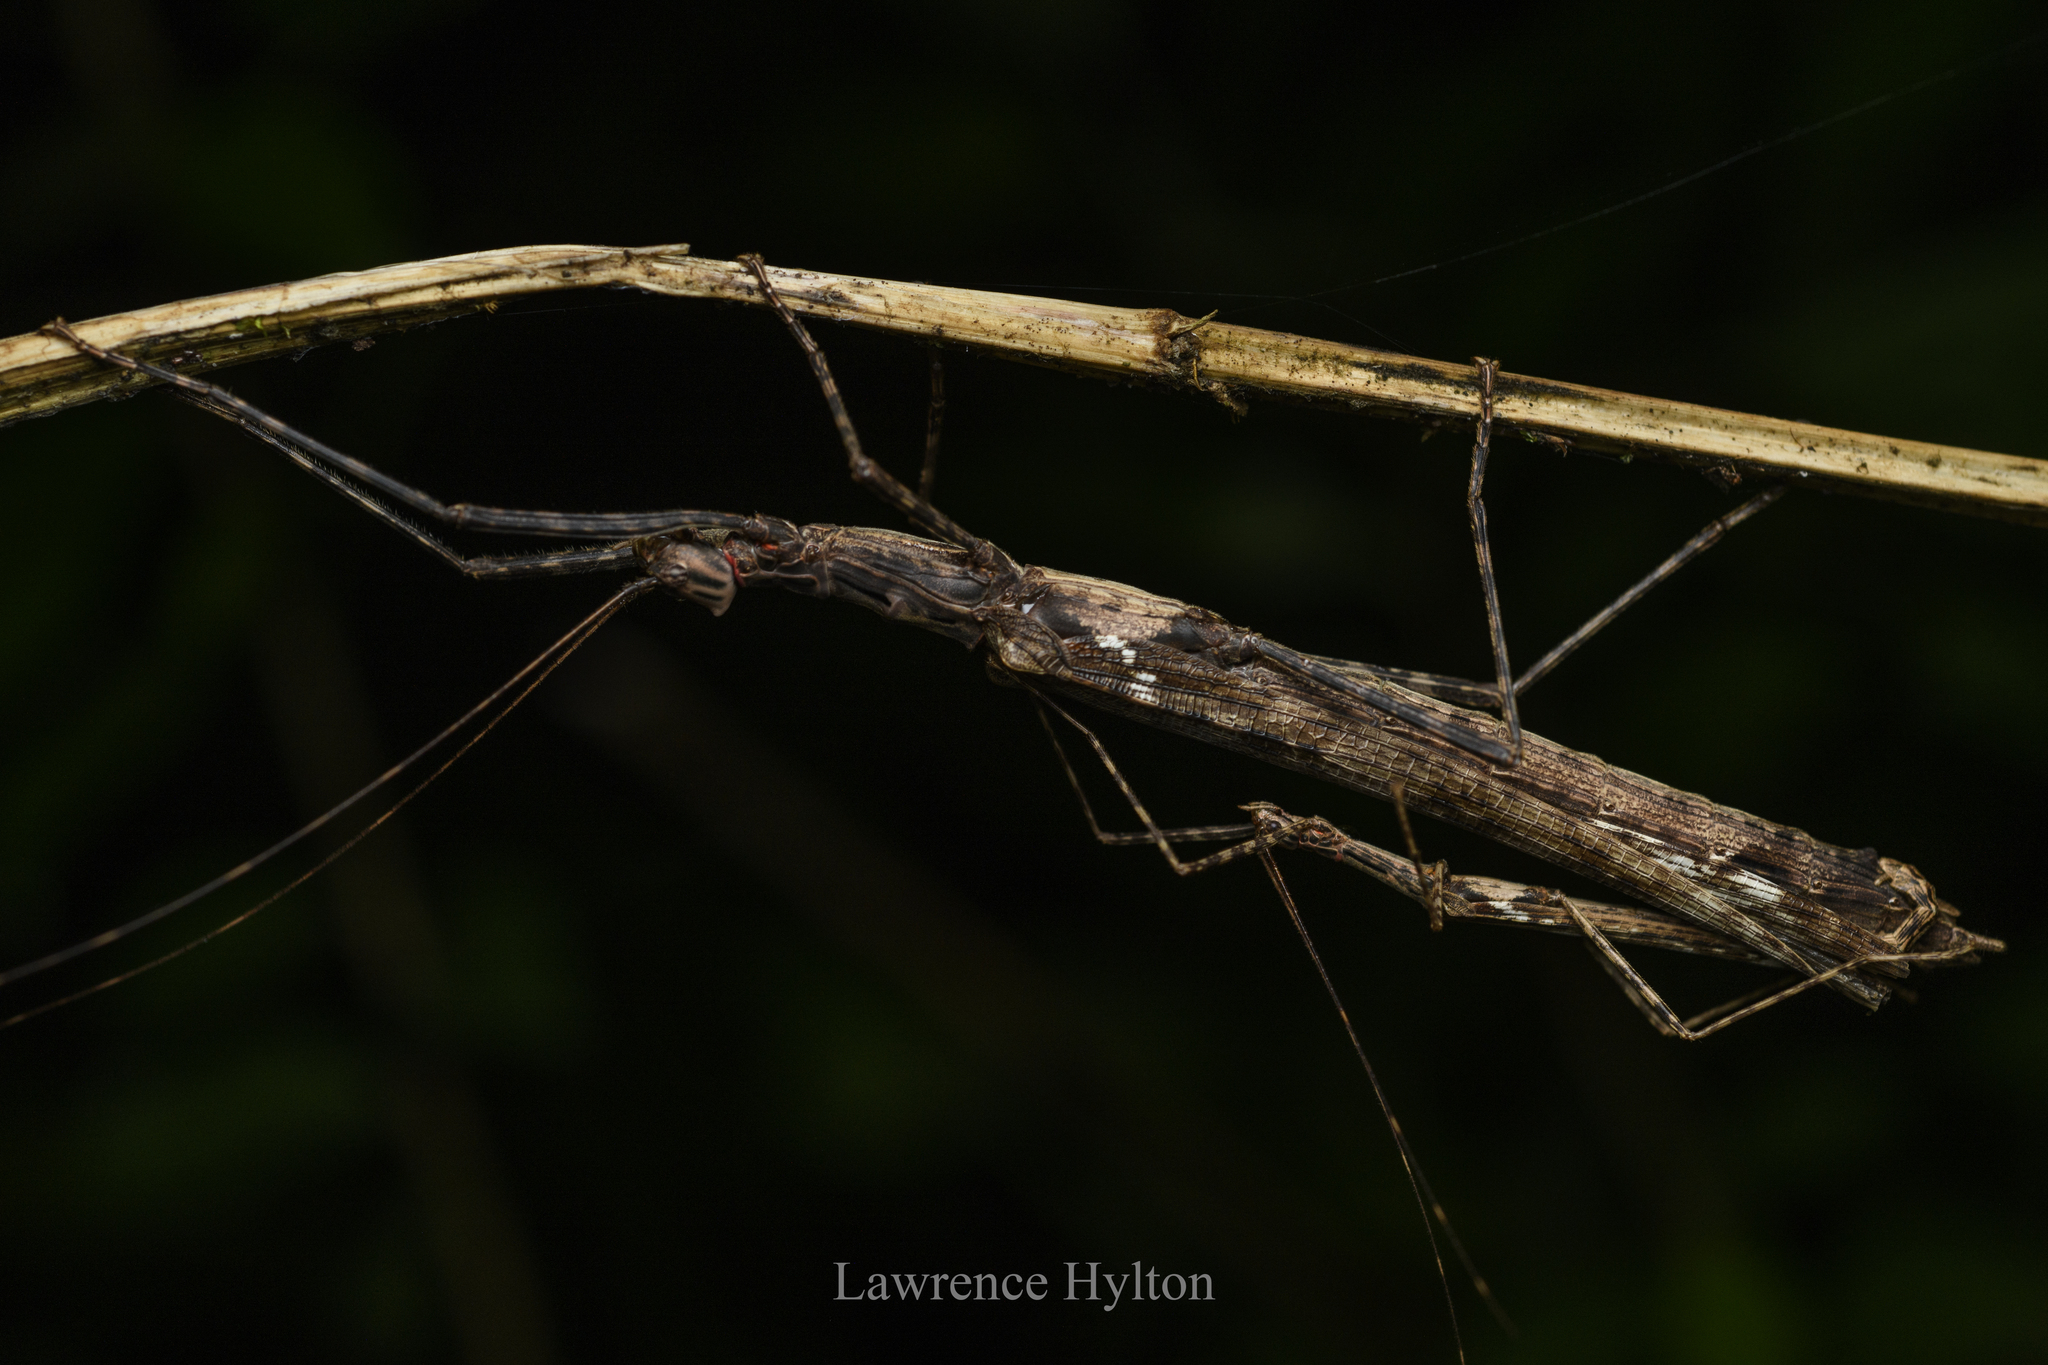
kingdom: Animalia
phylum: Arthropoda
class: Insecta
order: Phasmida
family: Lonchodidae
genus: Trachythorax
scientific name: Trachythorax maculicollis
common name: Oleander stick-insect
